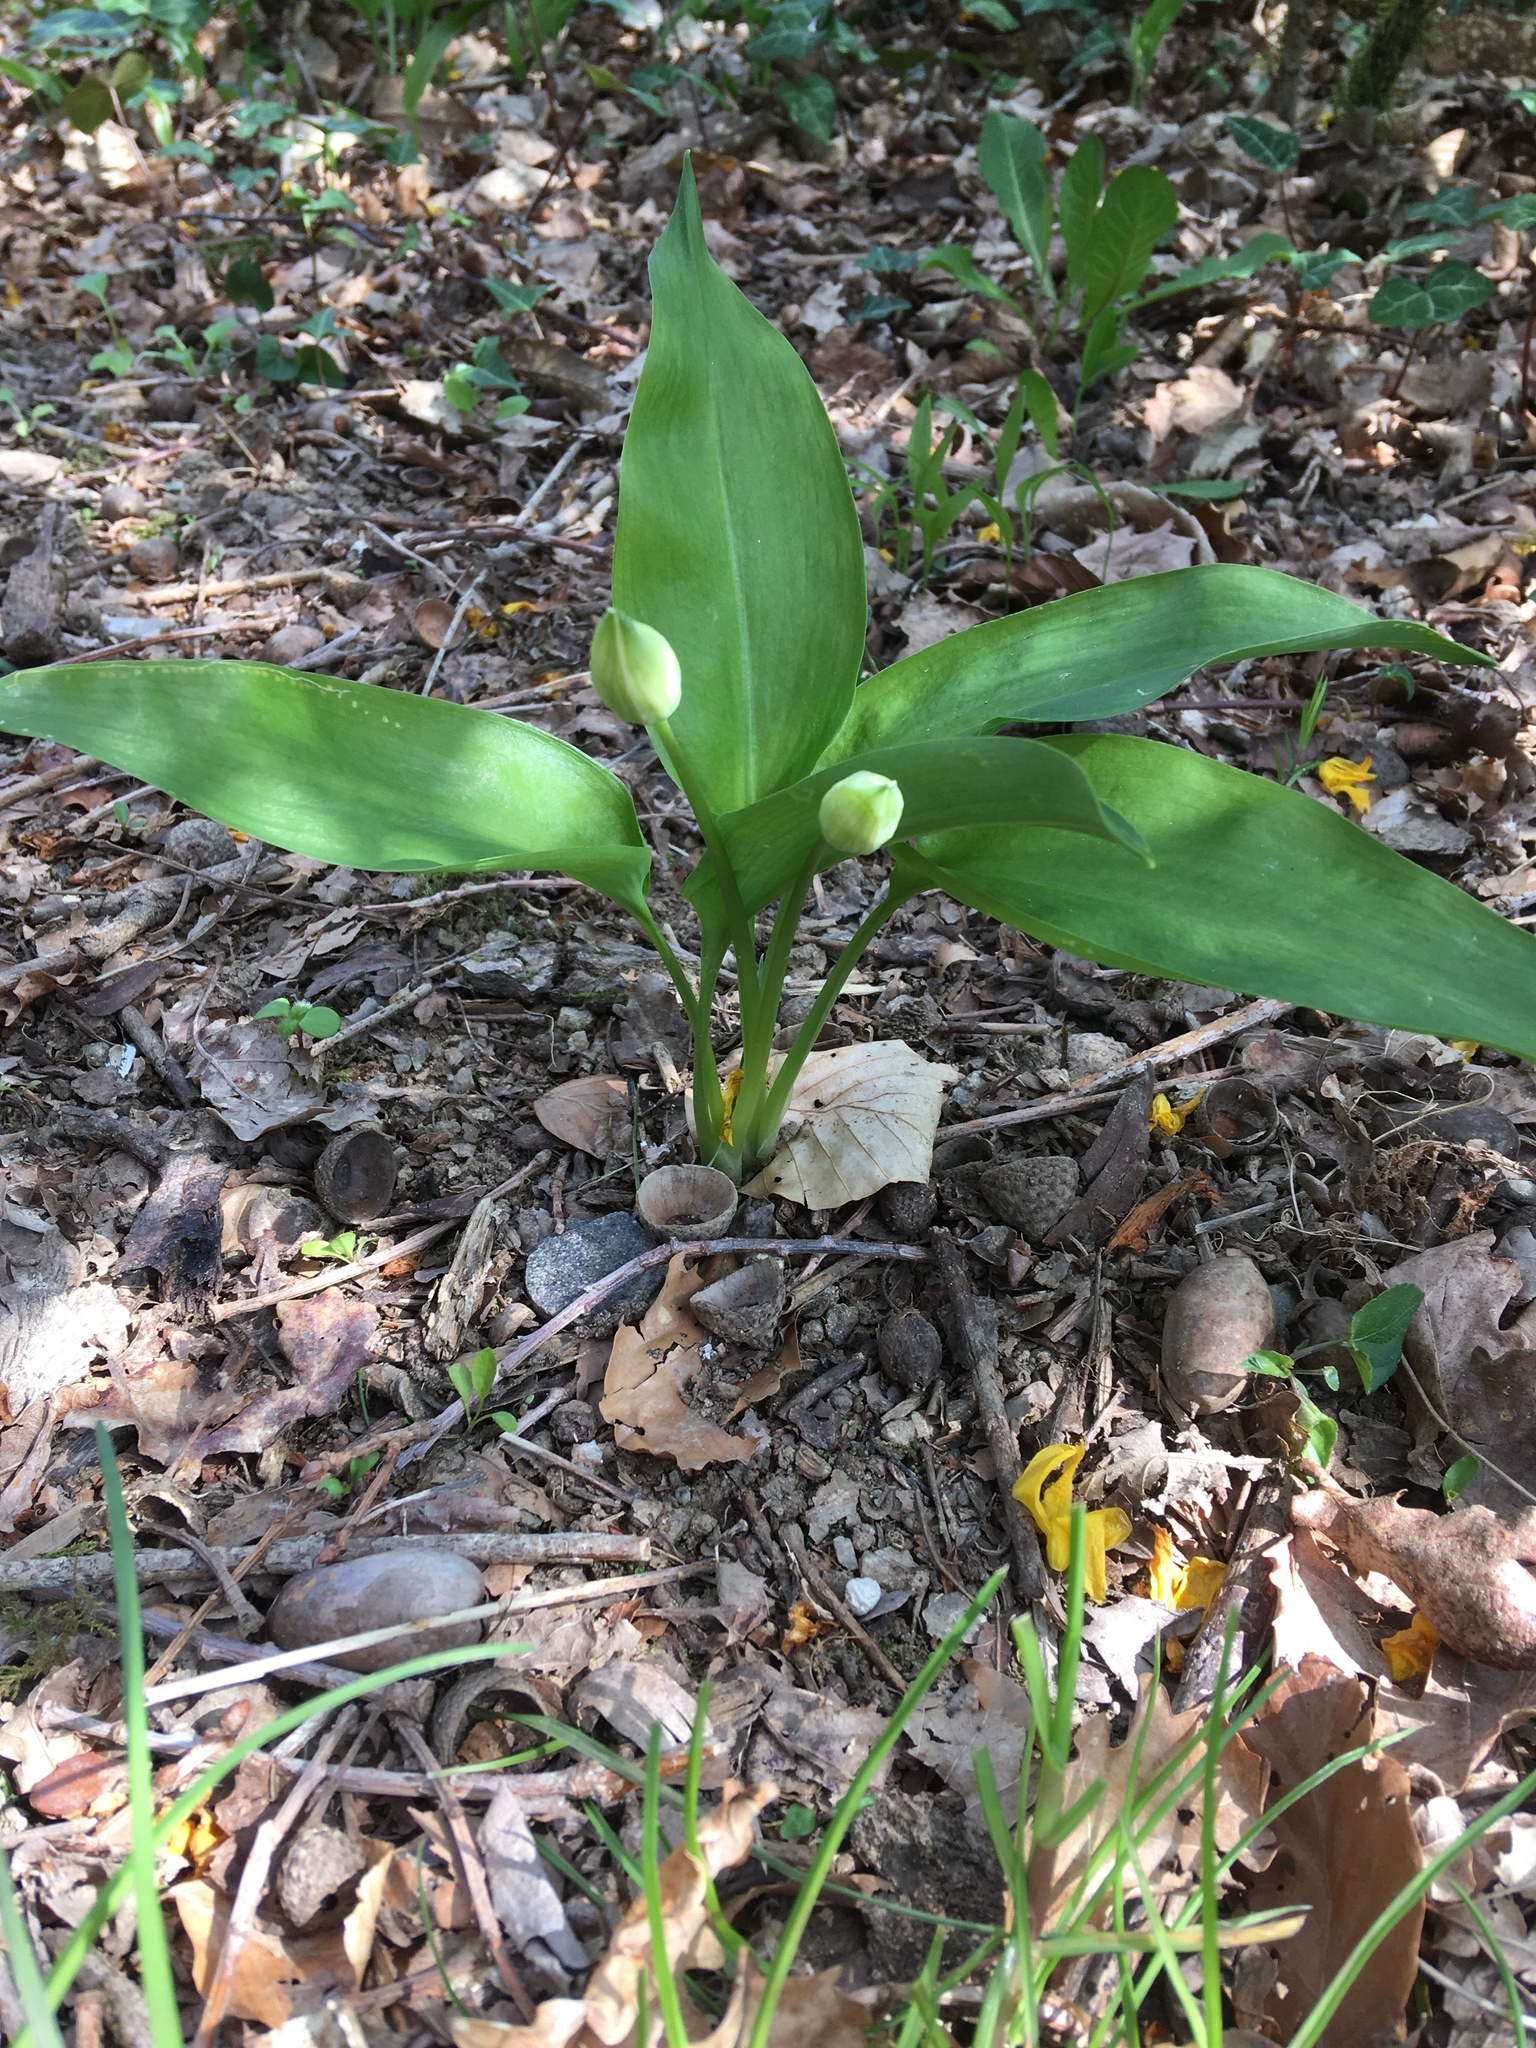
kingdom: Plantae
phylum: Tracheophyta
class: Liliopsida
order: Asparagales
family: Amaryllidaceae
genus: Allium
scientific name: Allium ursinum
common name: Ramsons
